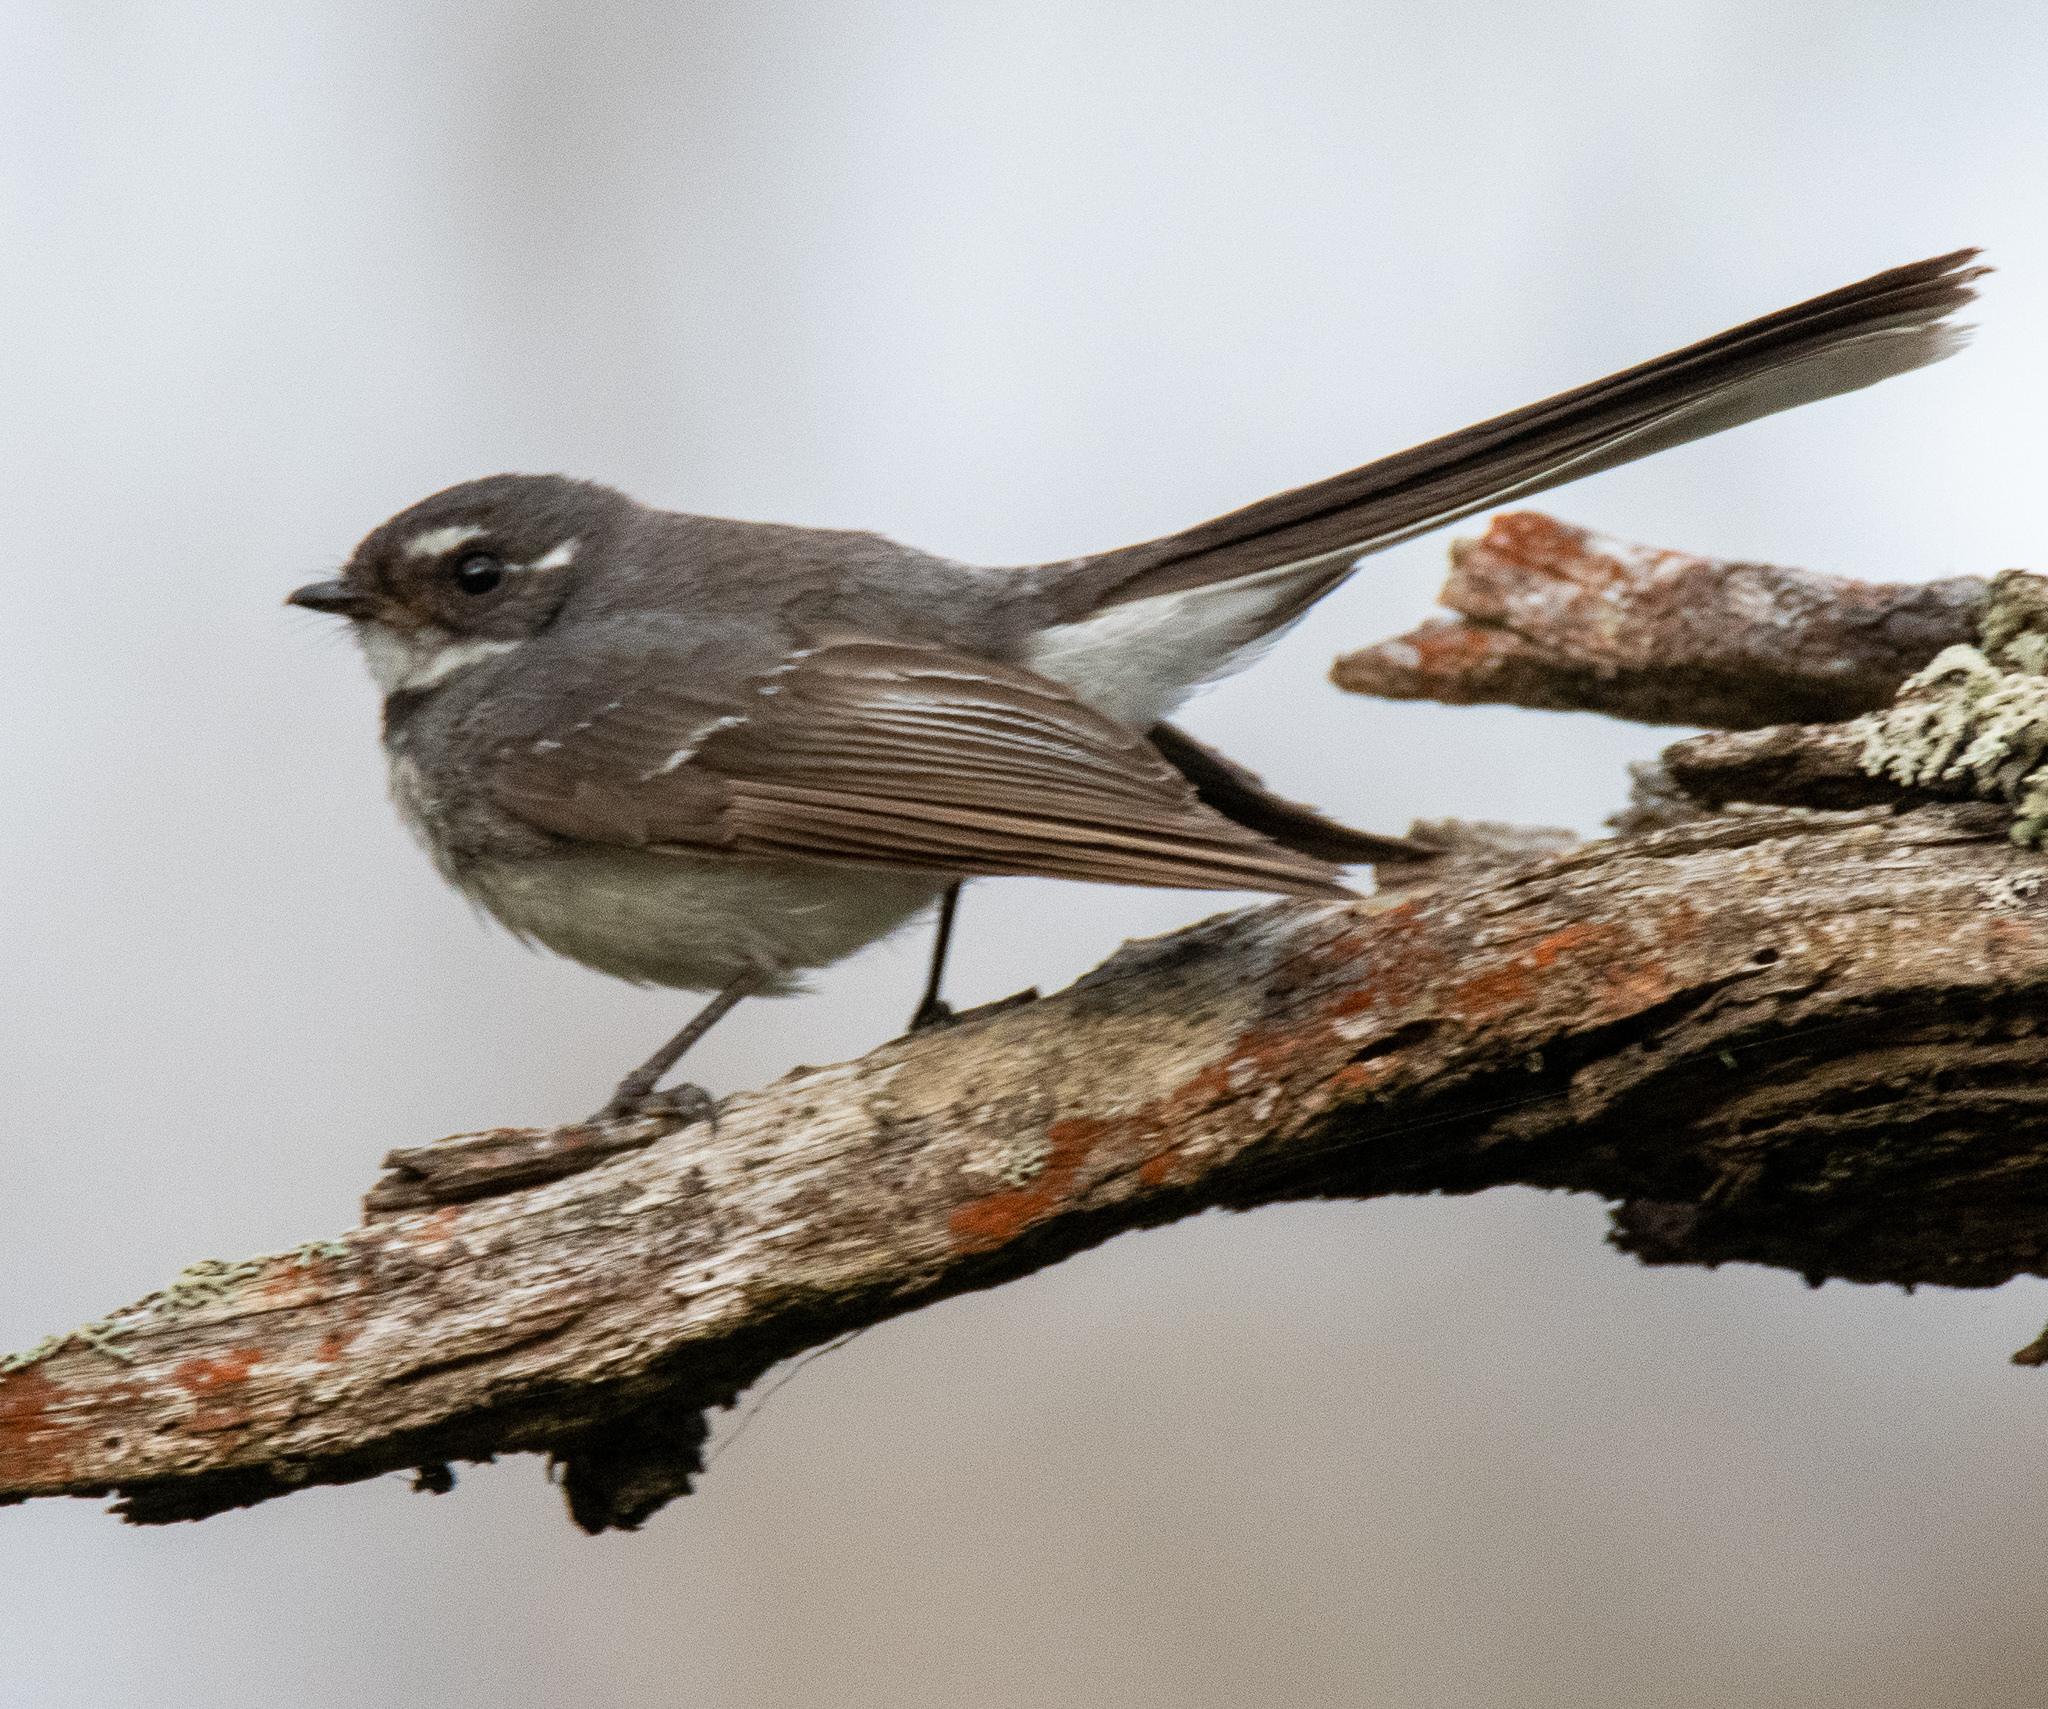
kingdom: Animalia
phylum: Chordata
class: Aves
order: Passeriformes
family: Rhipiduridae
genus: Rhipidura
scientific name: Rhipidura albiscapa
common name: Grey fantail
